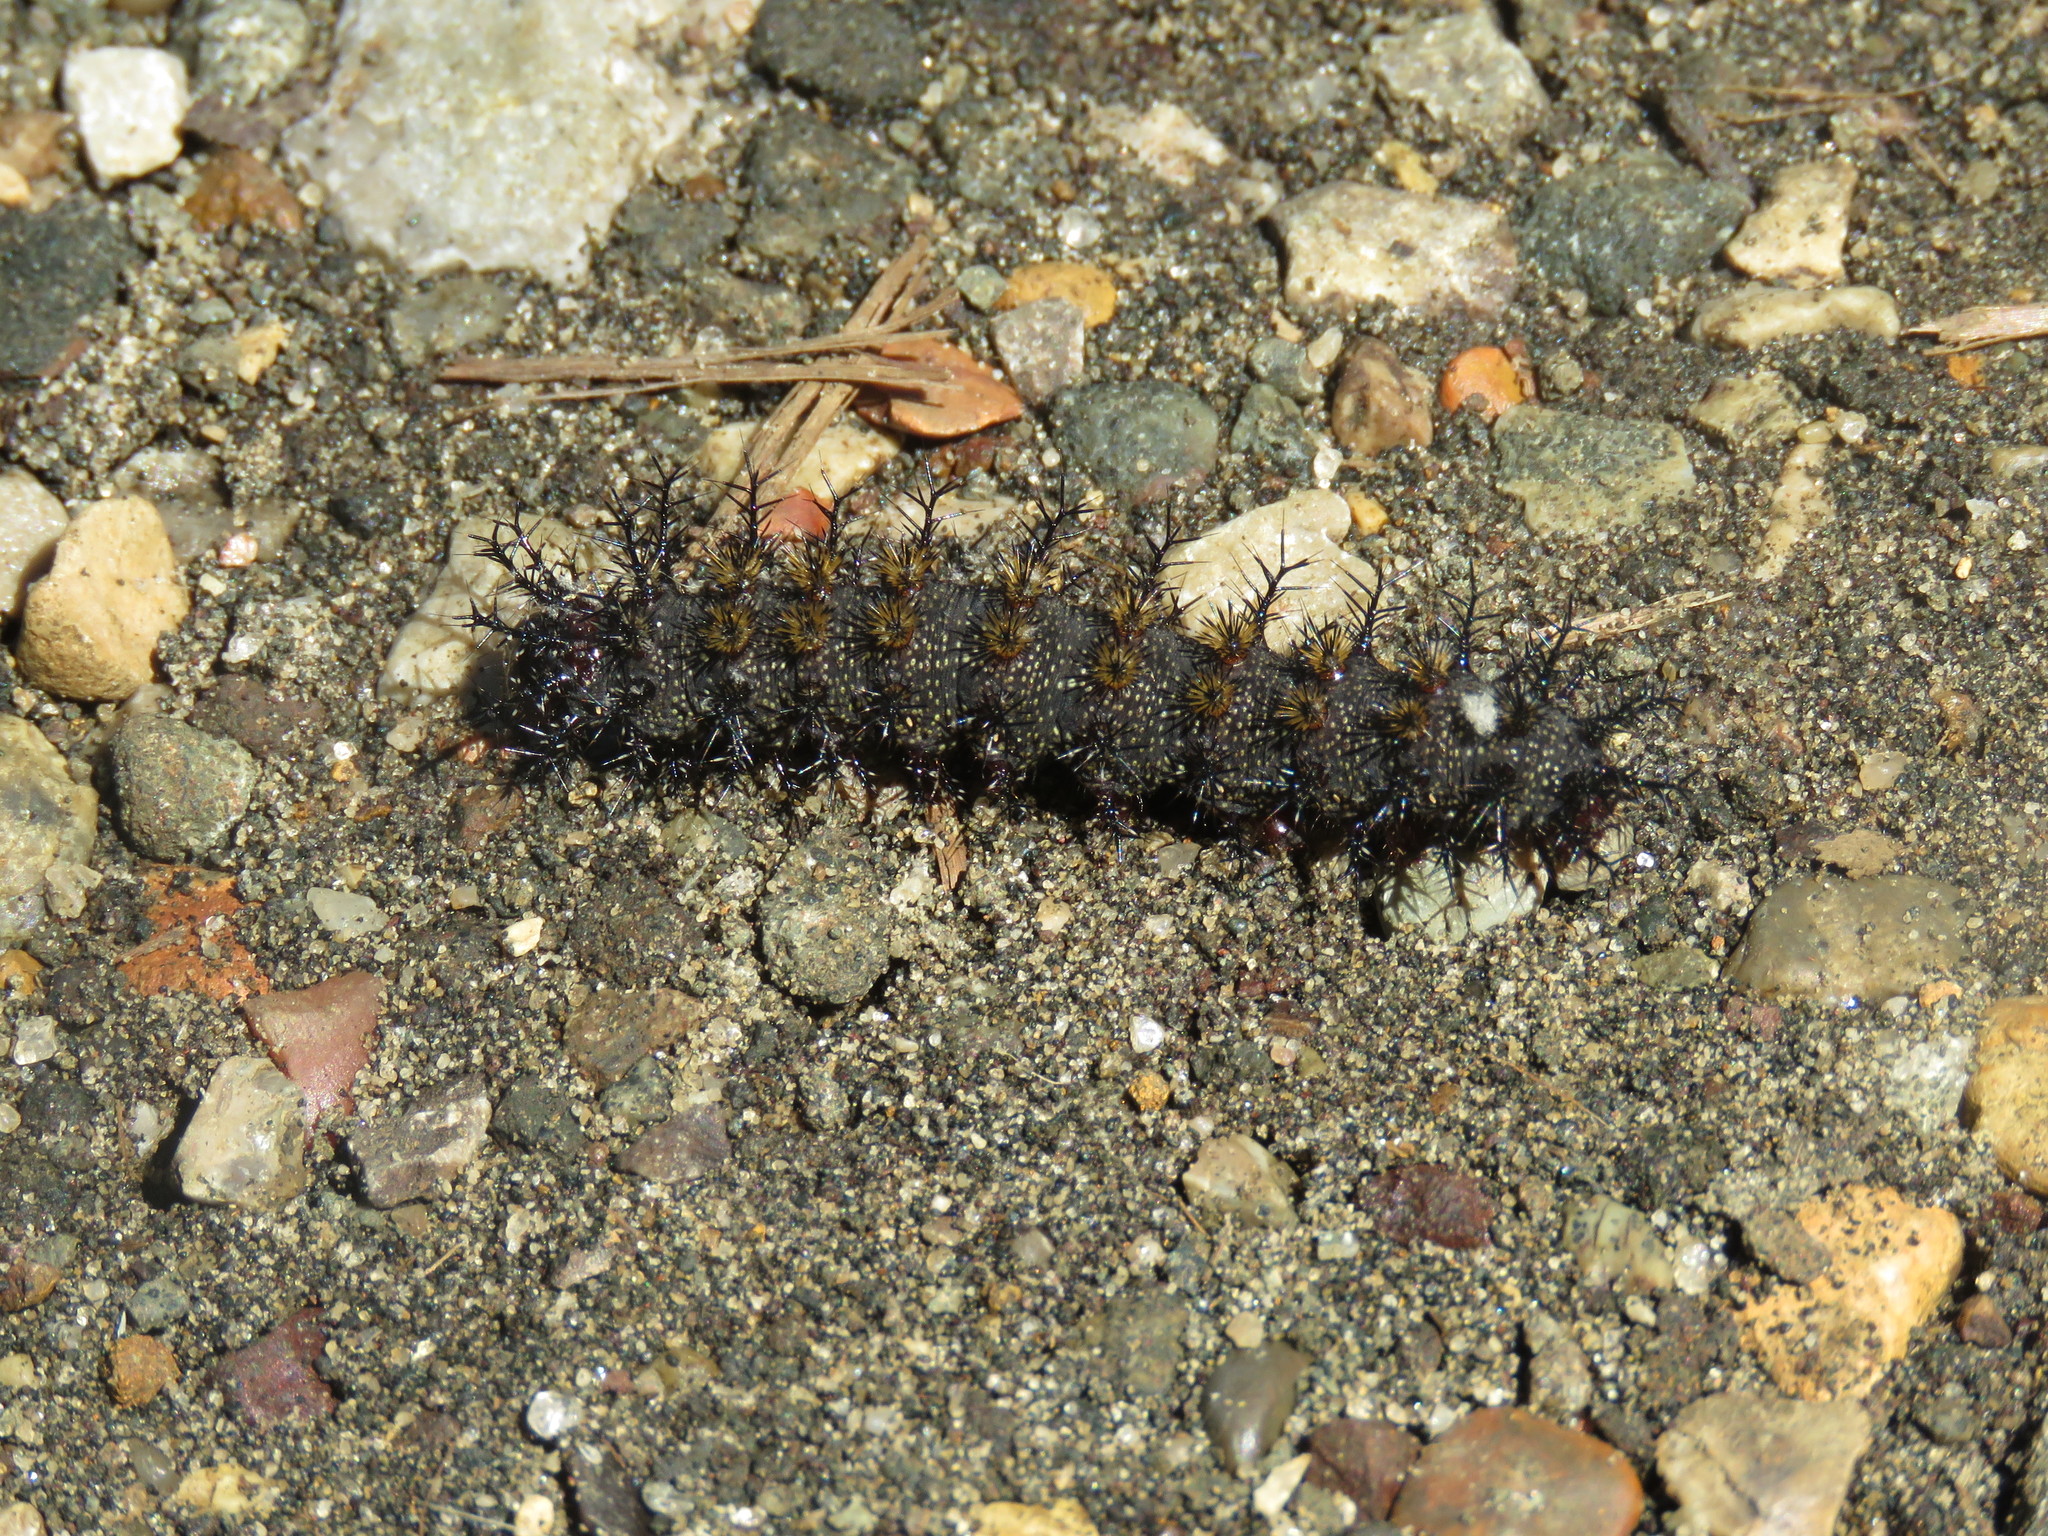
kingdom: Animalia
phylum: Arthropoda
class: Insecta
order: Lepidoptera
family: Saturniidae
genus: Hemileuca
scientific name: Hemileuca maia
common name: Eastern buckmoth
